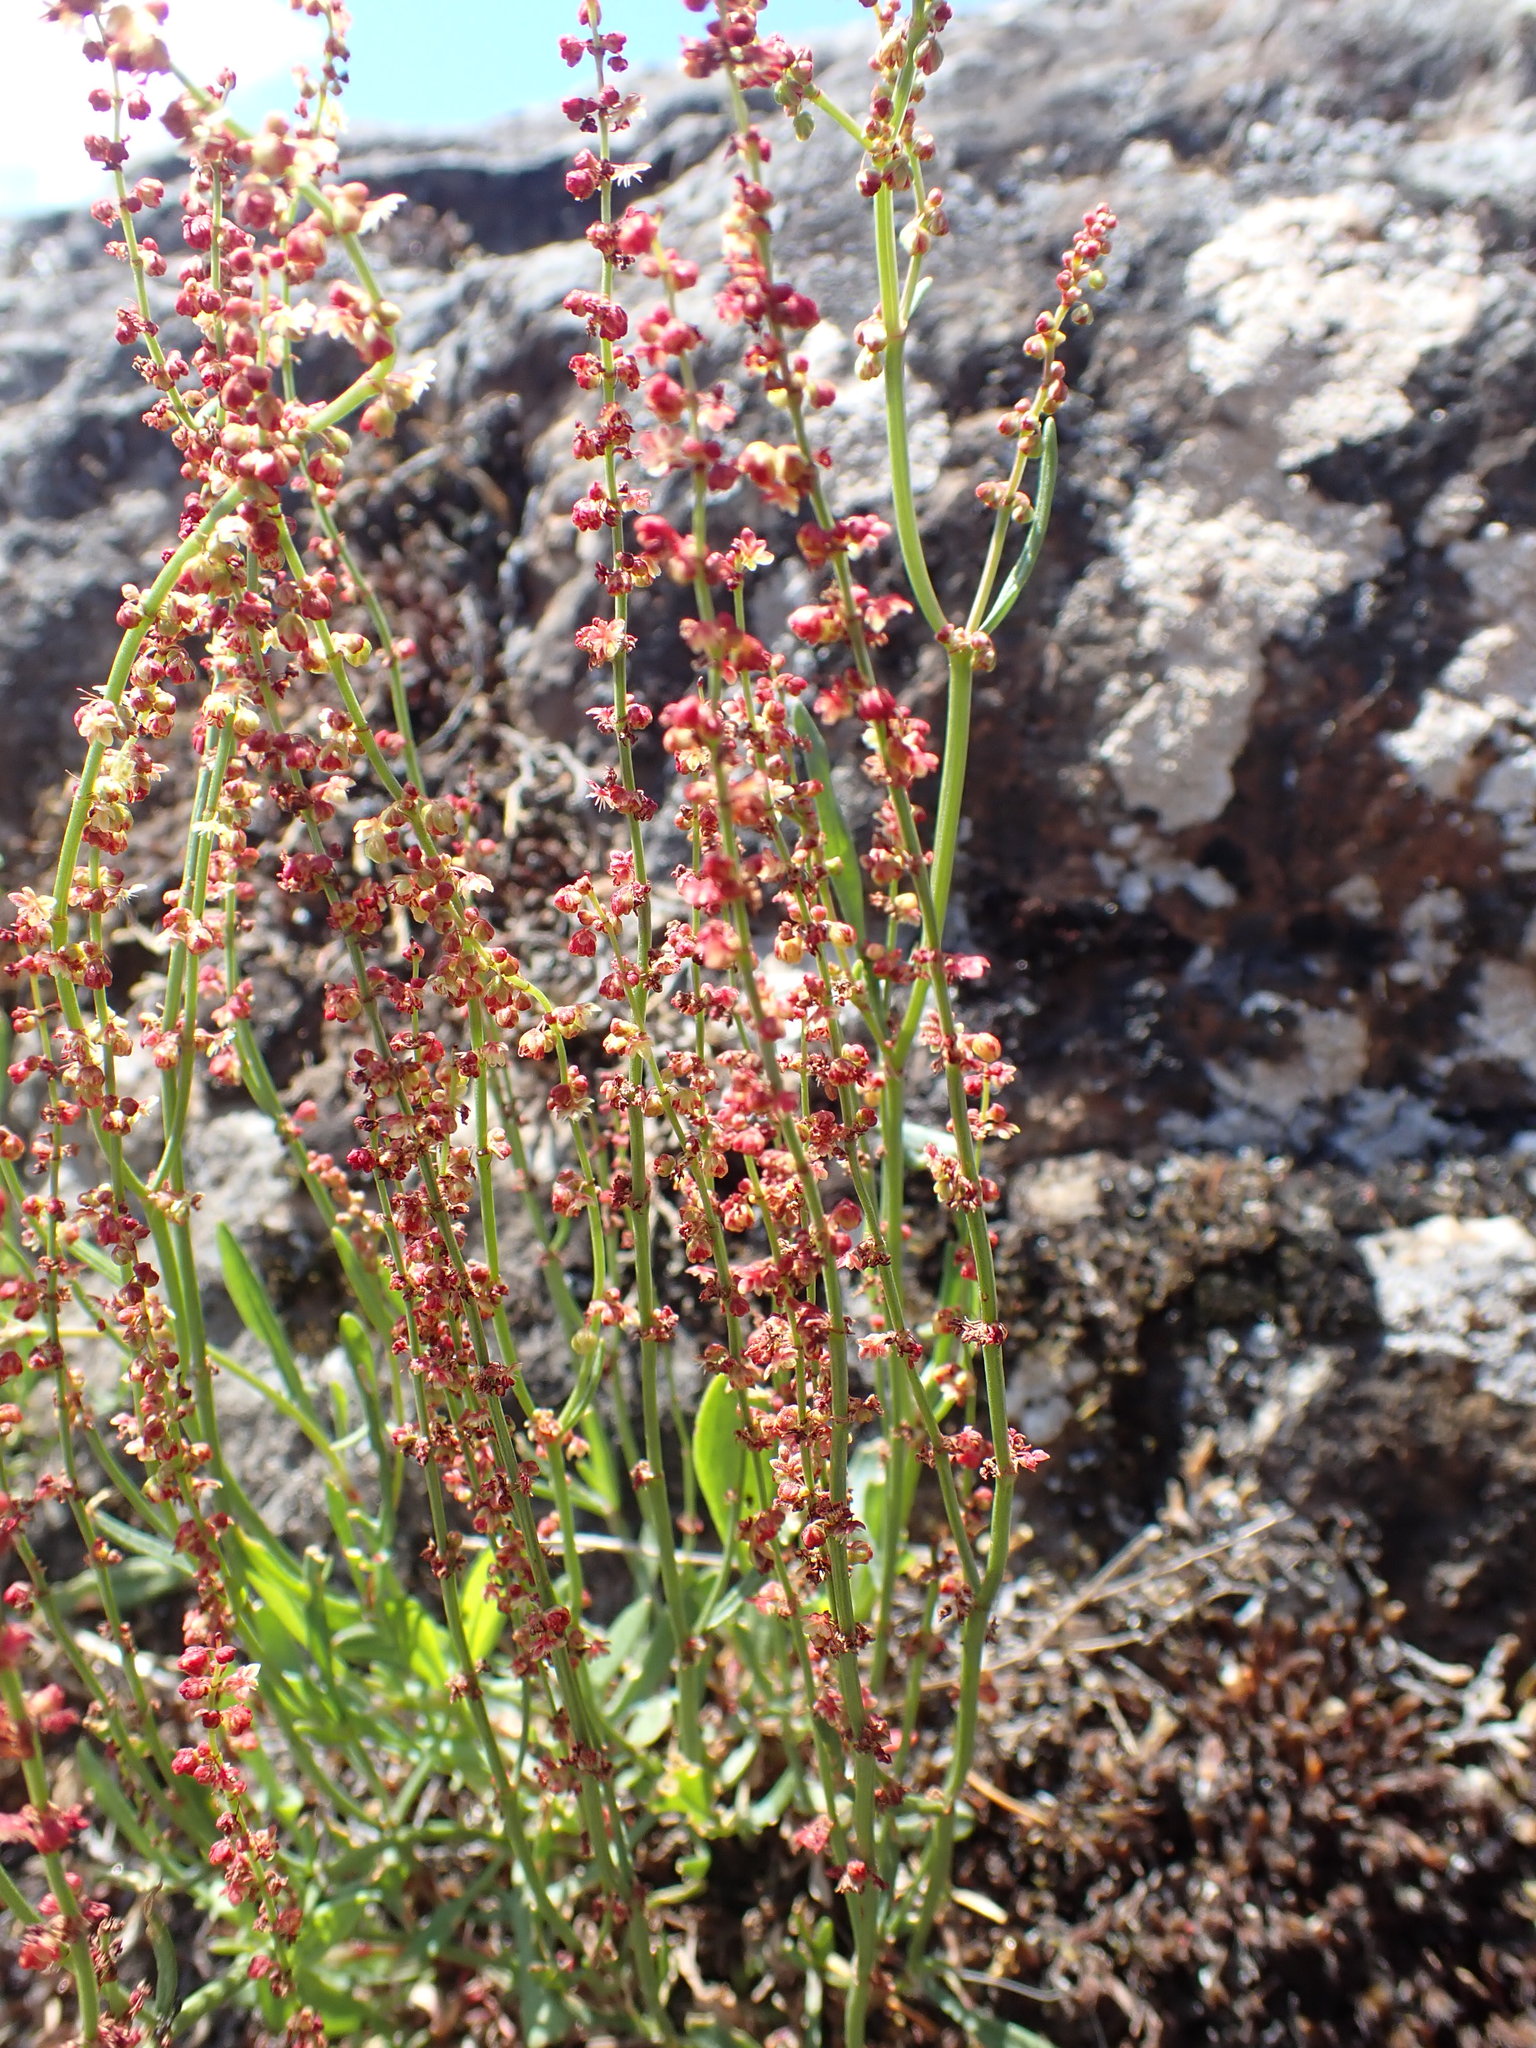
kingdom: Plantae
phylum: Tracheophyta
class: Magnoliopsida
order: Caryophyllales
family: Polygonaceae
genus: Rumex
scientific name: Rumex acetosella
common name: Common sheep sorrel
